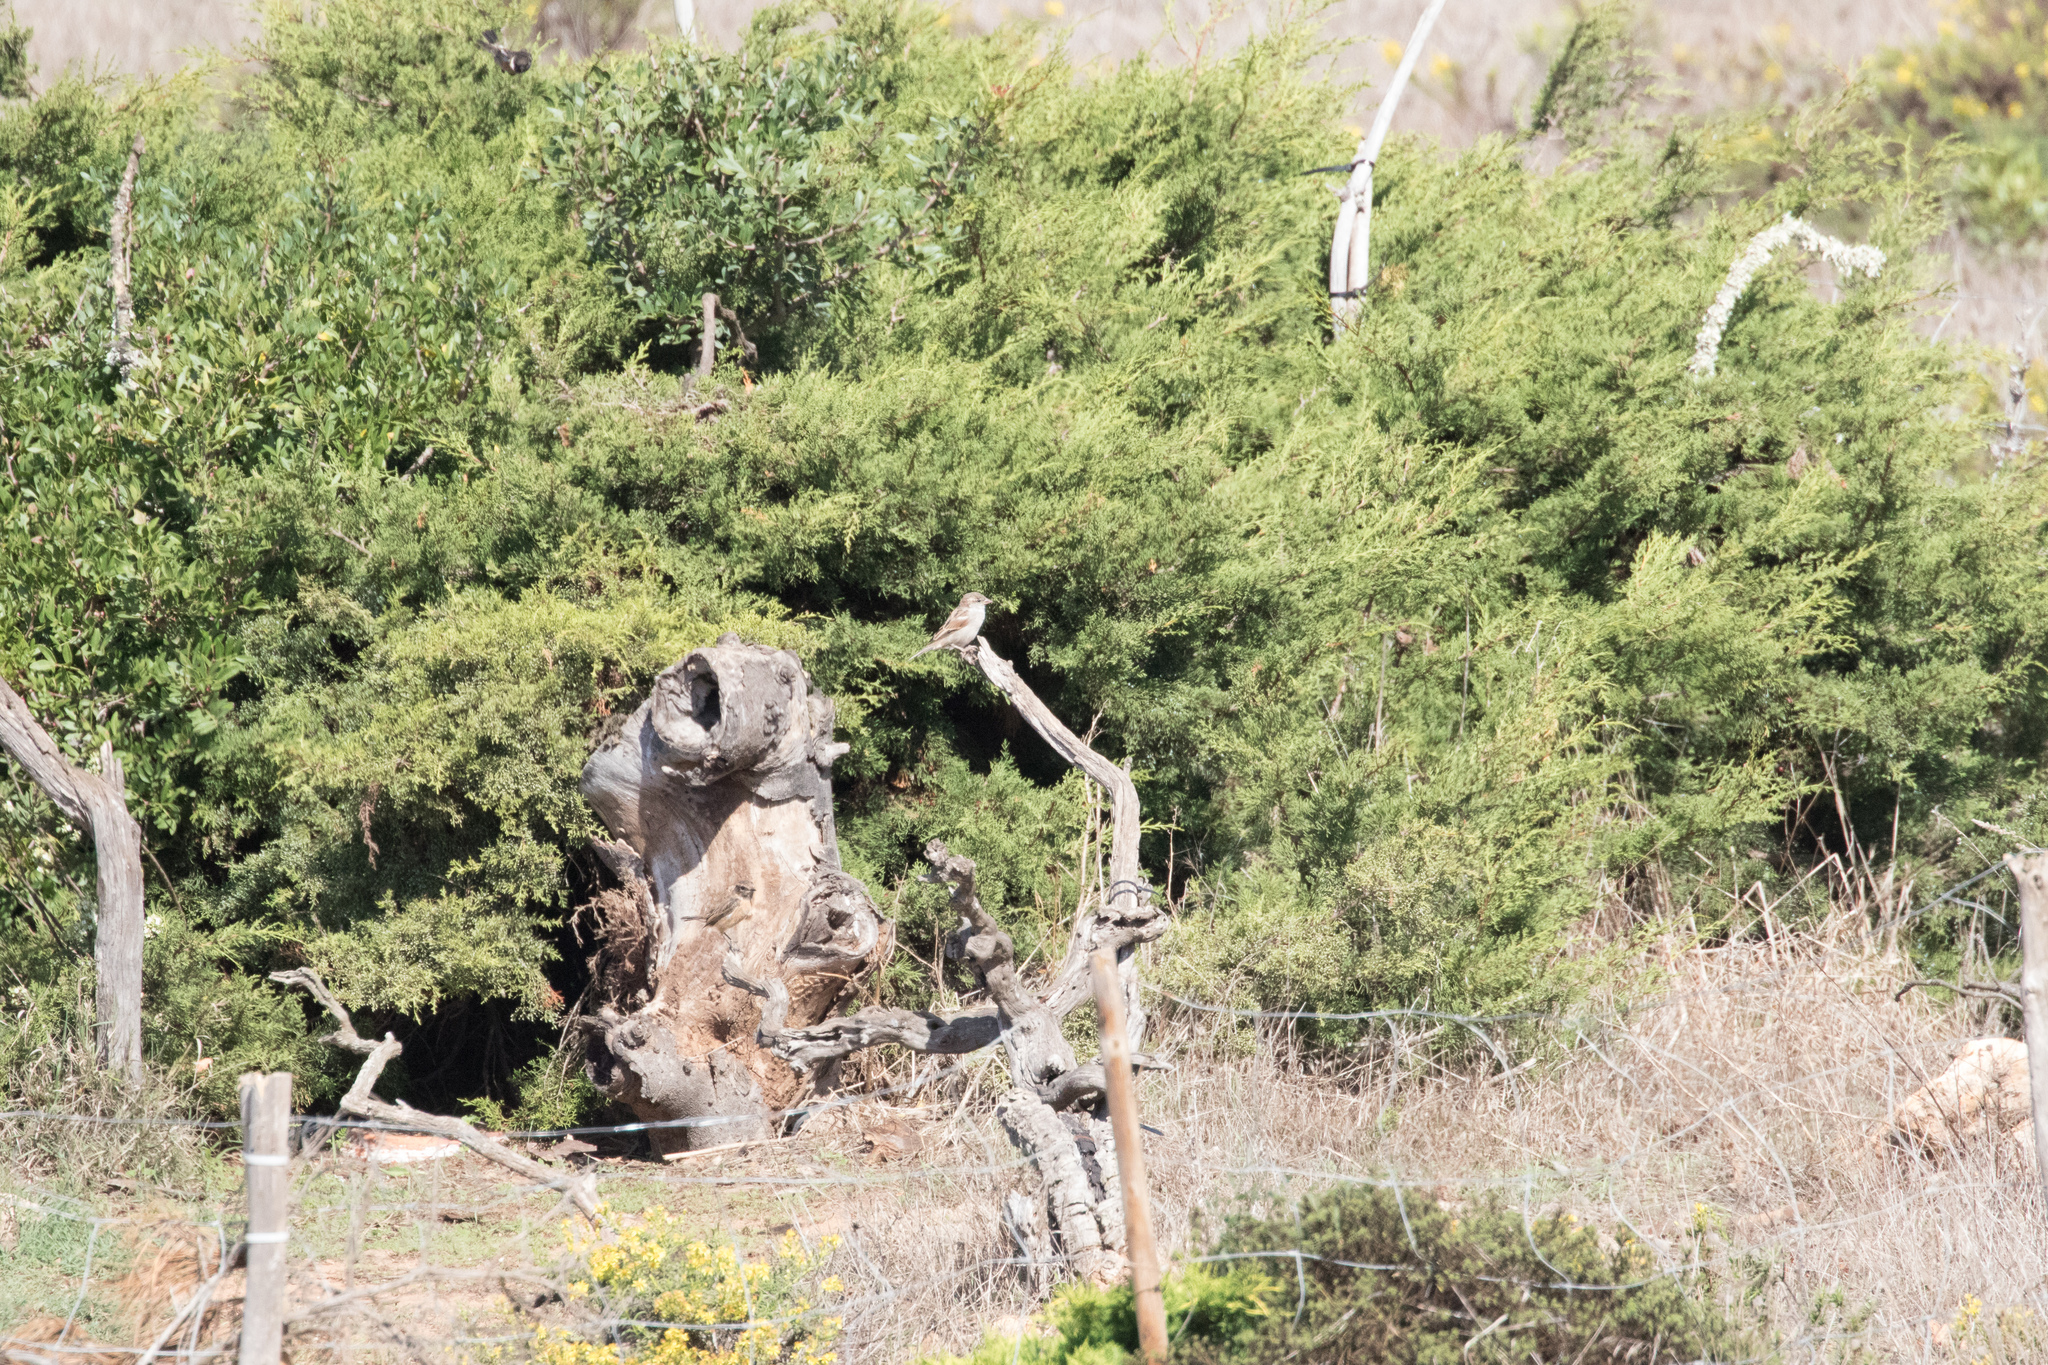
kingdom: Animalia
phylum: Chordata
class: Aves
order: Passeriformes
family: Muscicapidae
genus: Saxicola
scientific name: Saxicola rubicola
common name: European stonechat
